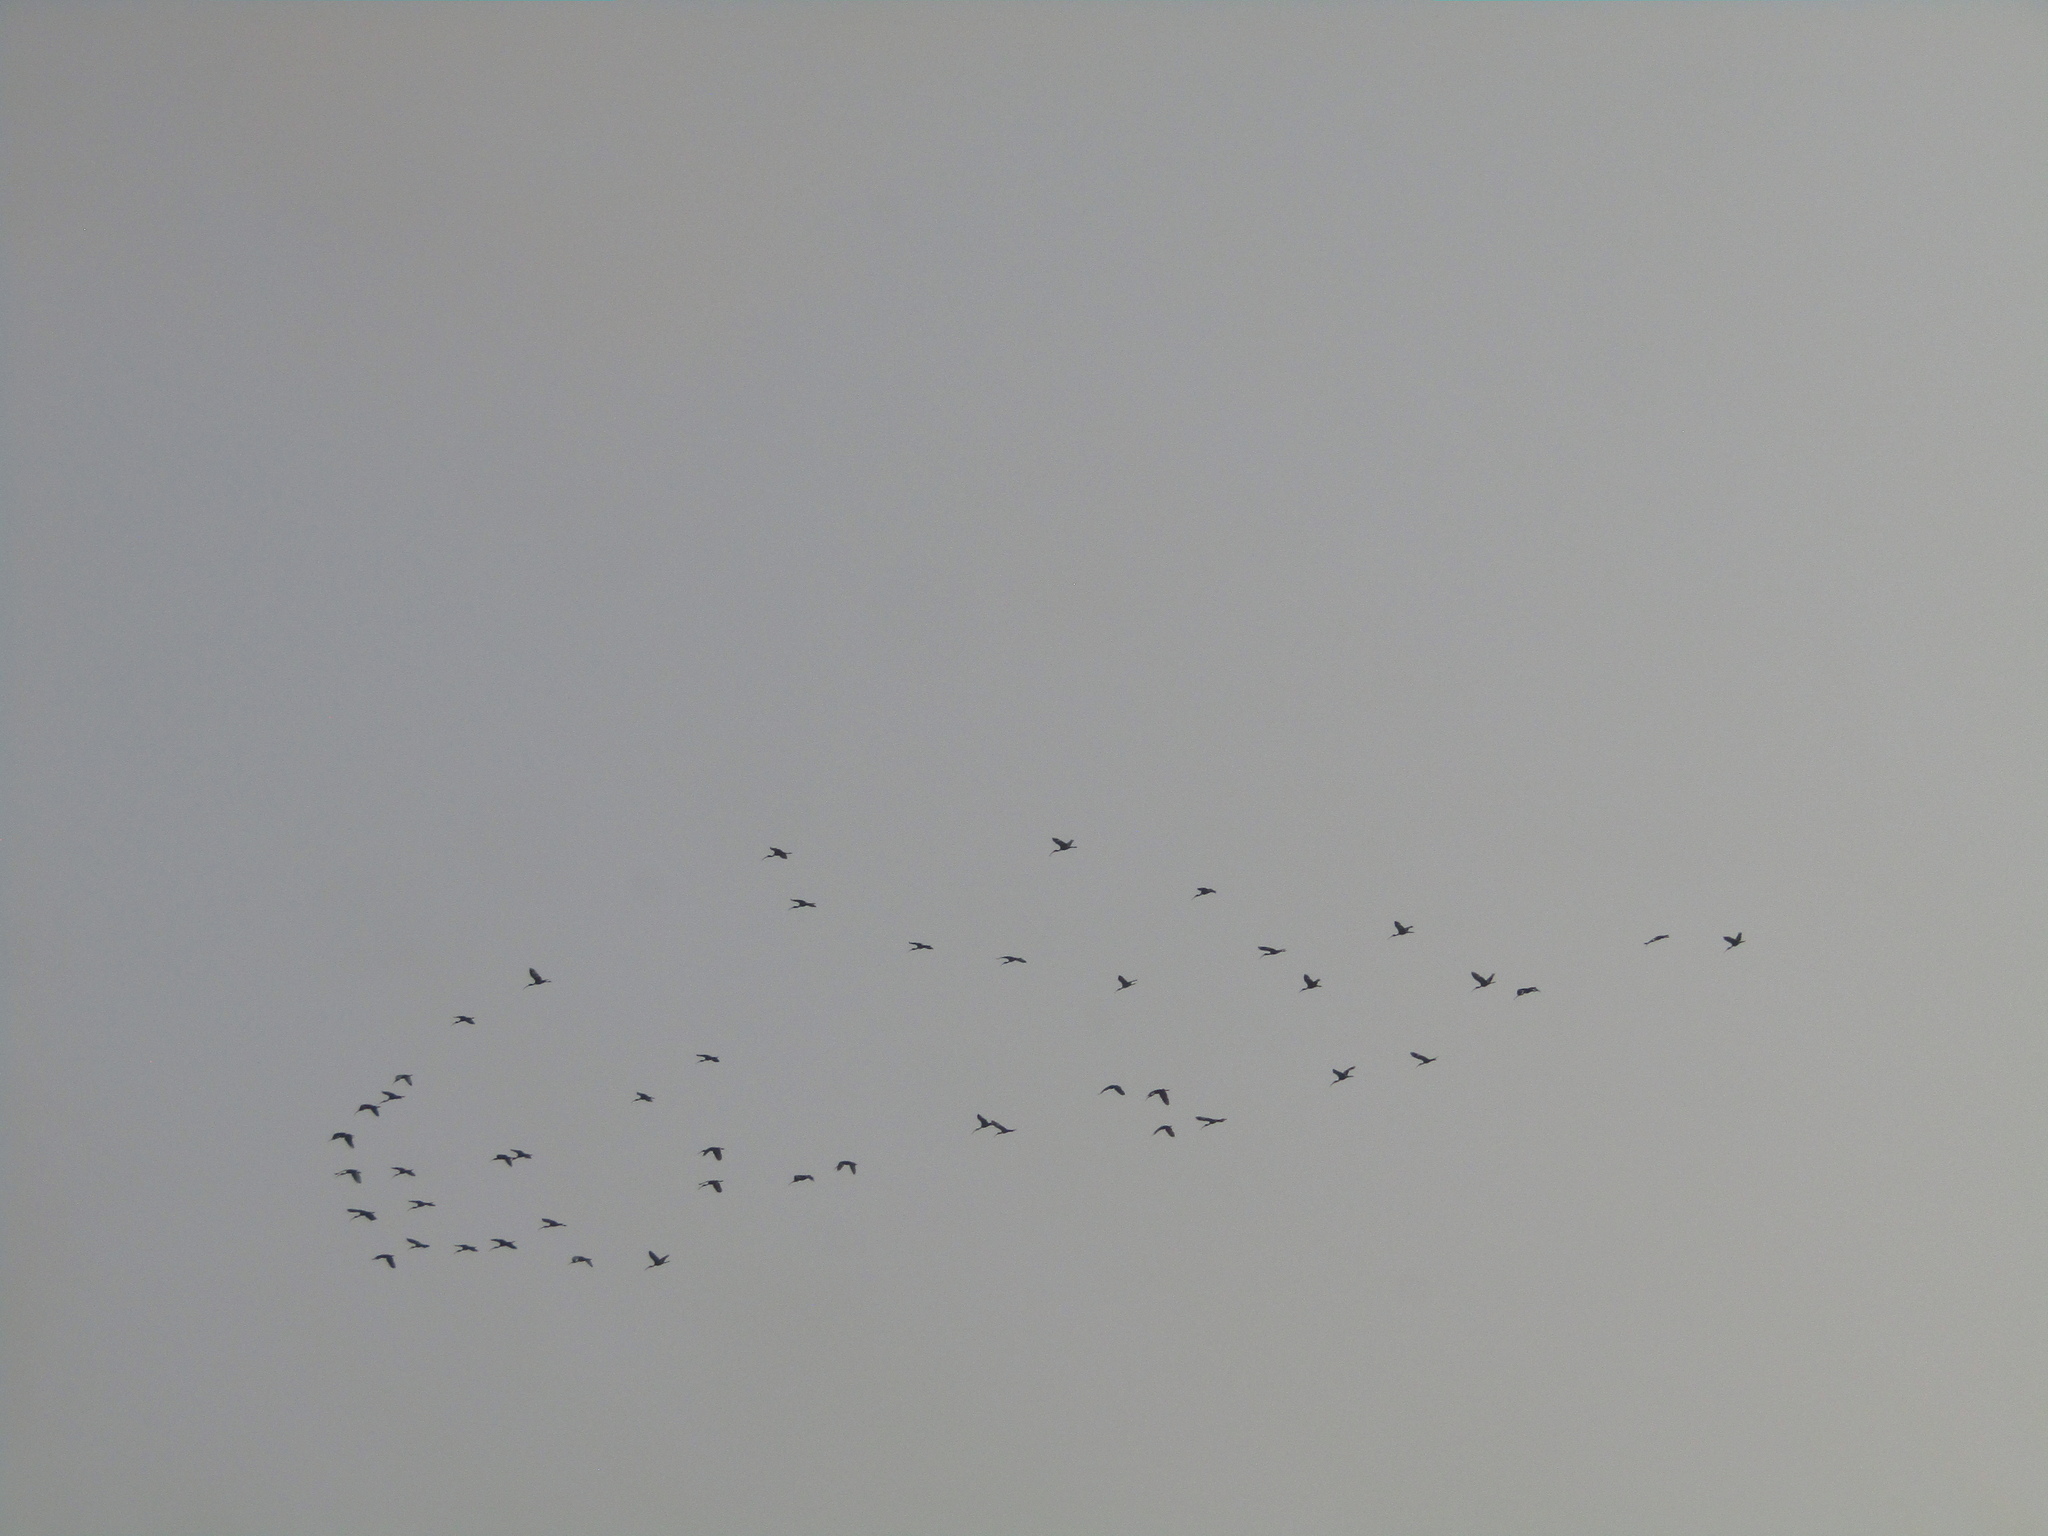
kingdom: Animalia
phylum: Chordata
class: Aves
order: Pelecaniformes
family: Threskiornithidae
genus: Eudocimus
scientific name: Eudocimus albus
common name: White ibis
